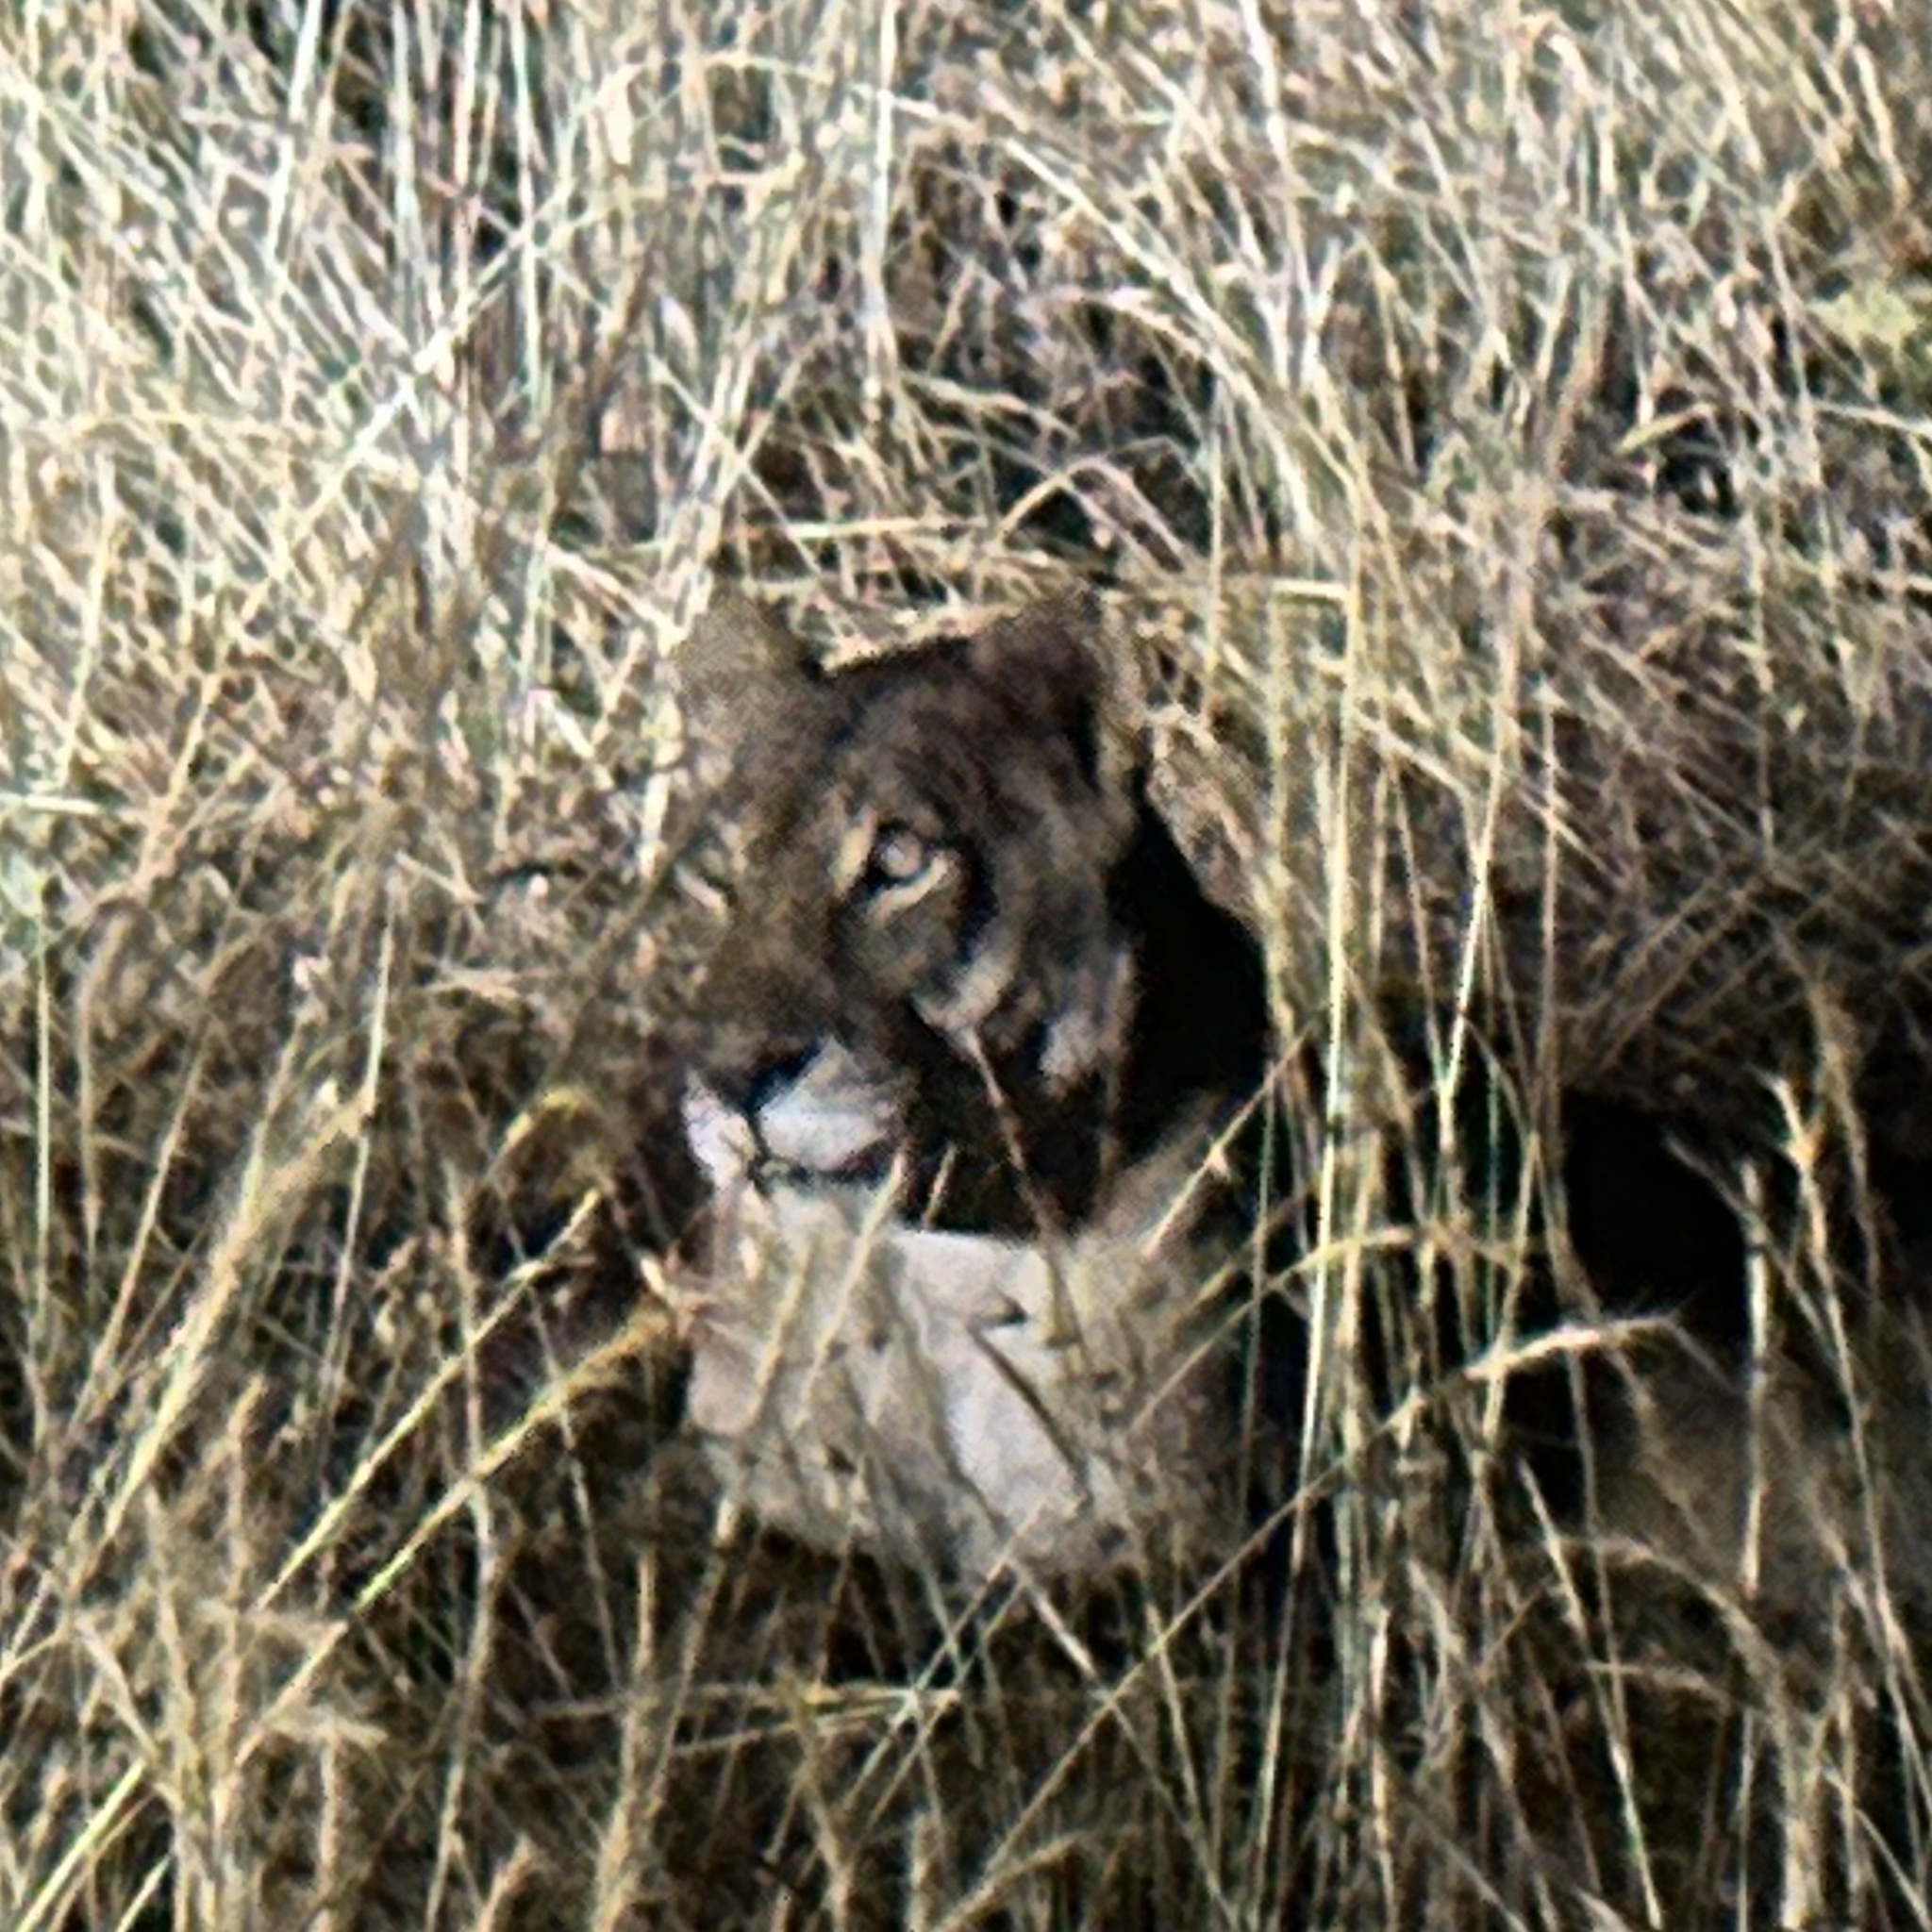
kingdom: Animalia
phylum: Chordata
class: Mammalia
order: Carnivora
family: Felidae
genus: Panthera
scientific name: Panthera leo
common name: Lion
